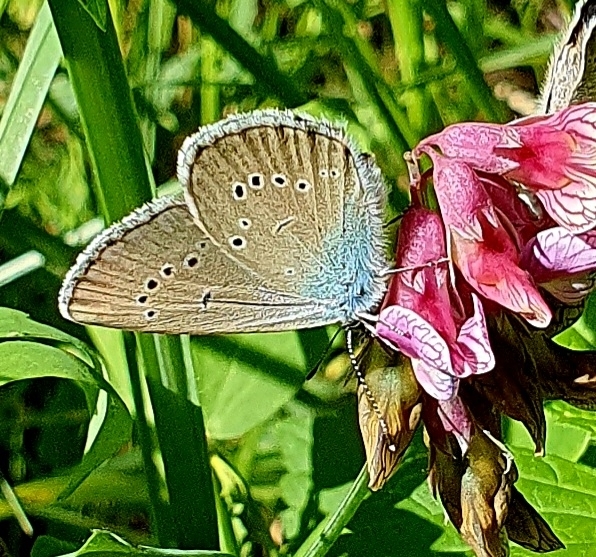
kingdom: Animalia
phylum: Arthropoda
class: Insecta
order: Lepidoptera
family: Lycaenidae
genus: Cyaniris
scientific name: Cyaniris semiargus
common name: Mazarine blue
